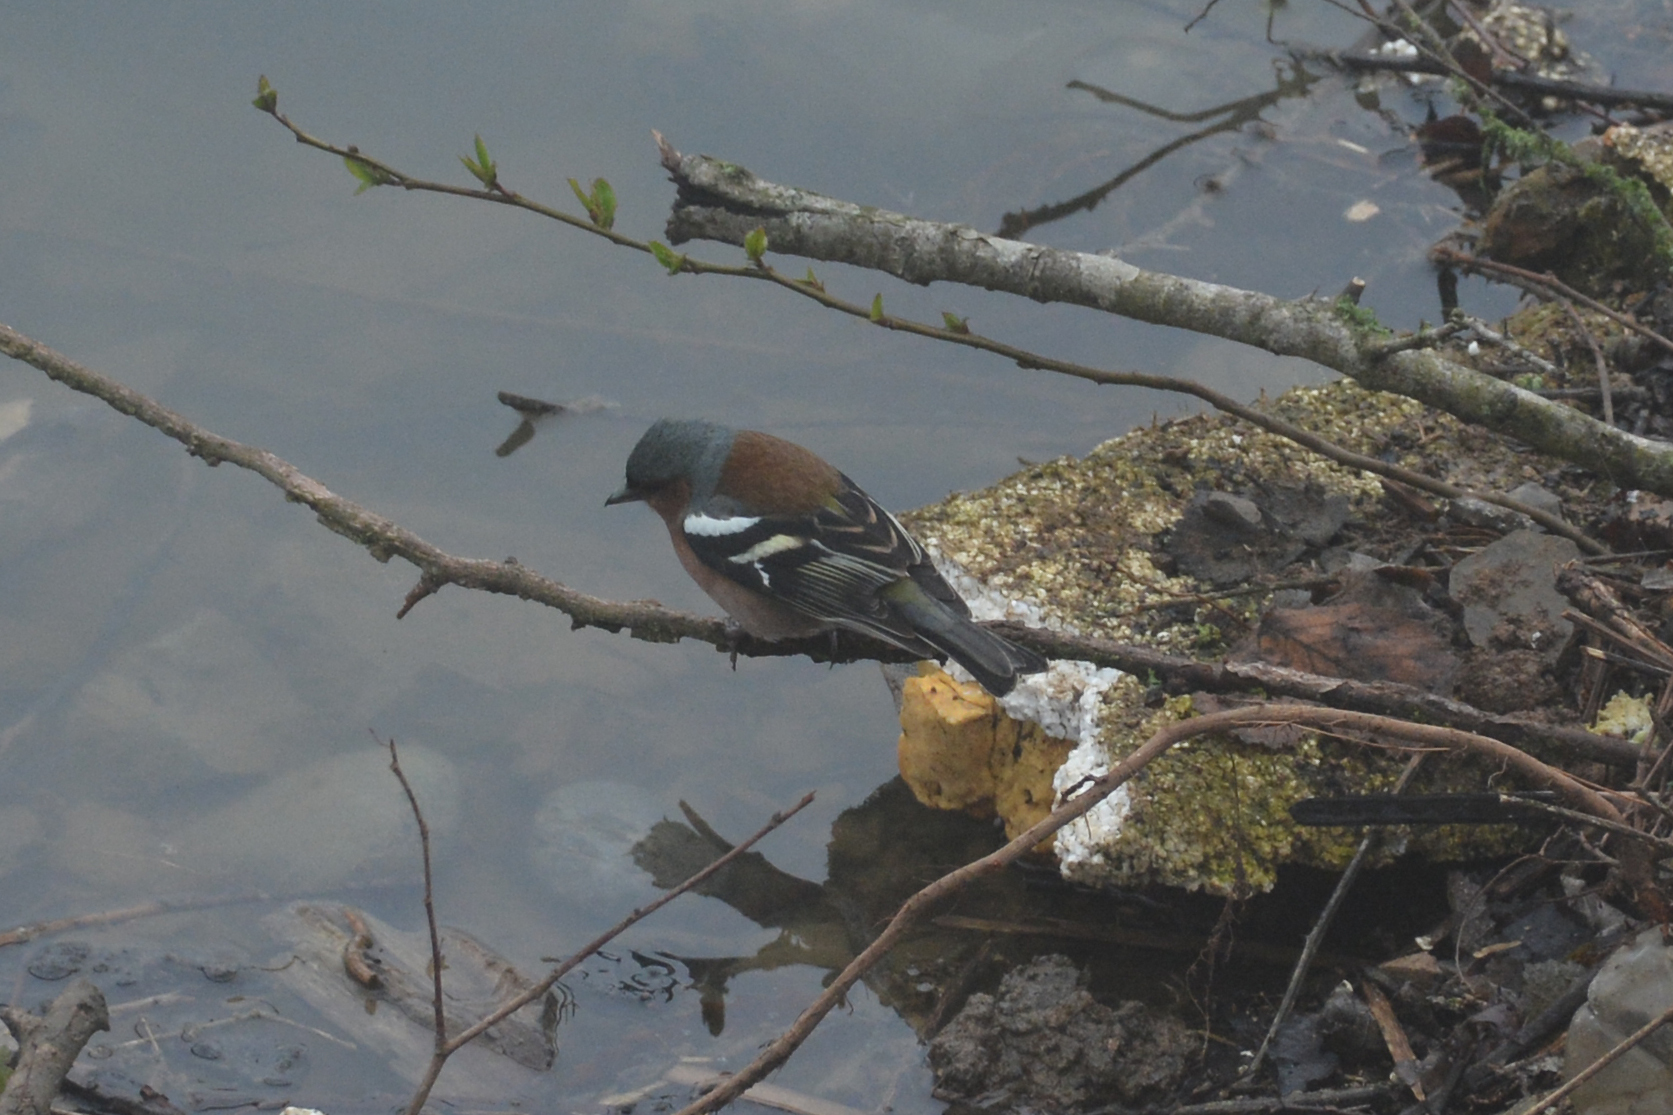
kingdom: Animalia
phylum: Chordata
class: Aves
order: Passeriformes
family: Fringillidae
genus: Fringilla
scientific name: Fringilla coelebs
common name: Common chaffinch
